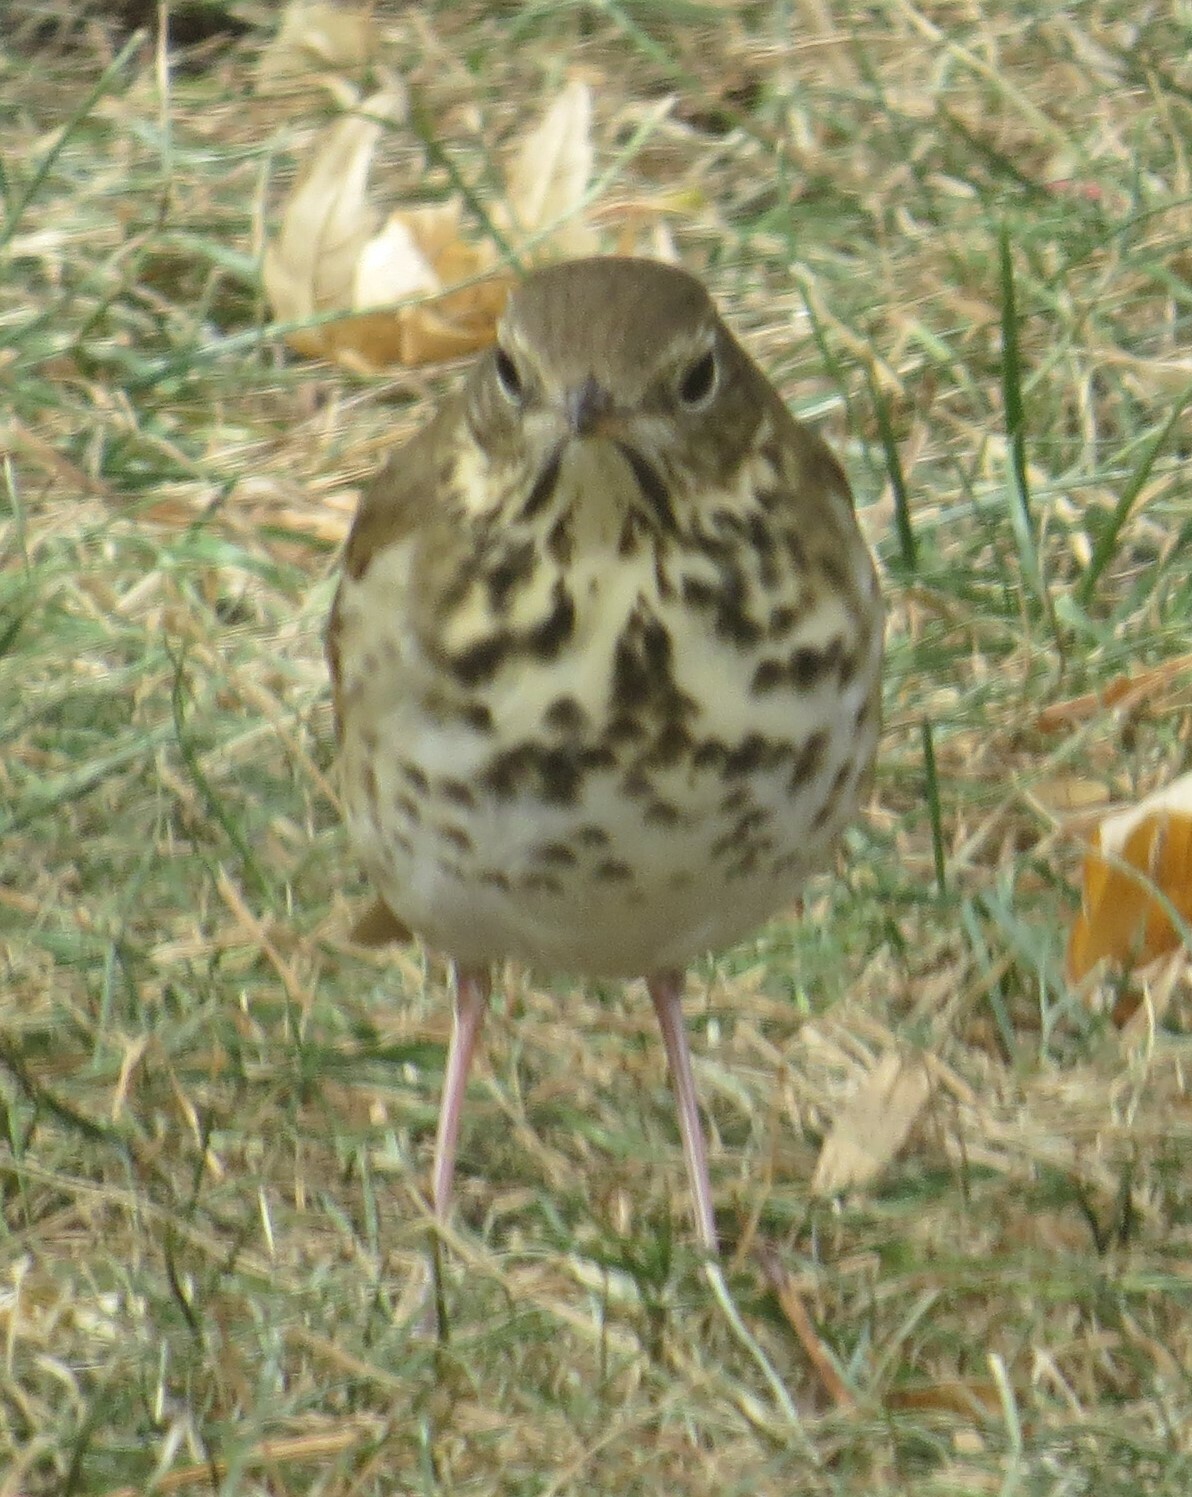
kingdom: Animalia
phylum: Chordata
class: Aves
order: Passeriformes
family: Turdidae
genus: Catharus
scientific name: Catharus guttatus
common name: Hermit thrush
